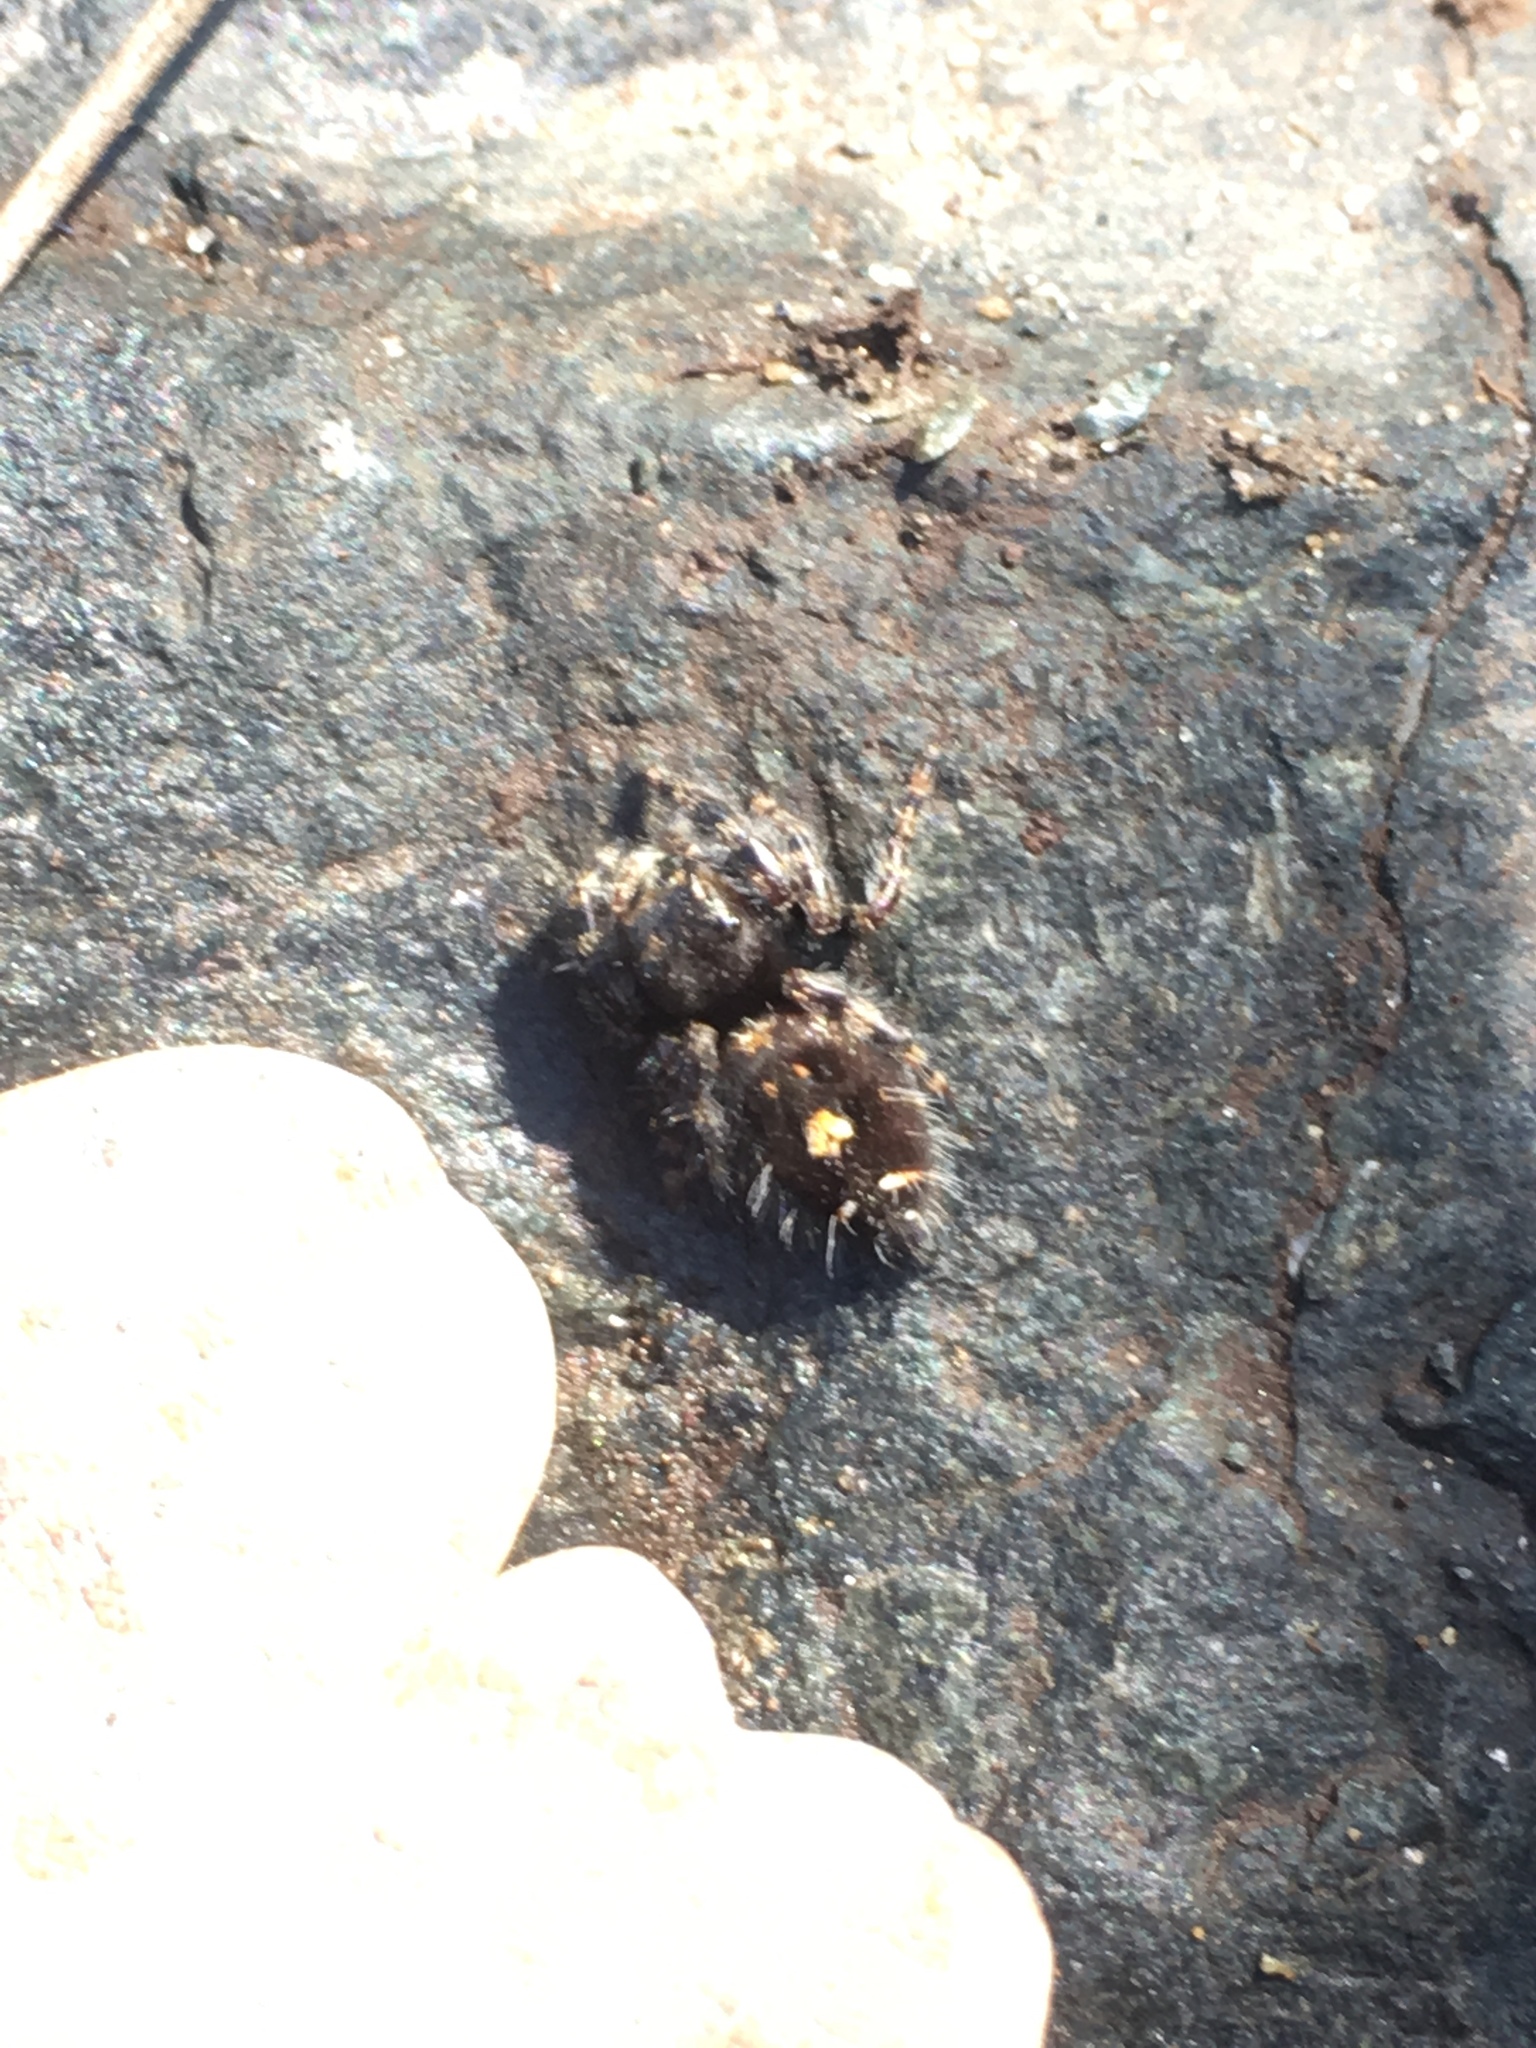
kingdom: Animalia
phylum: Arthropoda
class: Arachnida
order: Araneae
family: Salticidae
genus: Phidippus
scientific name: Phidippus audax
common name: Bold jumper
